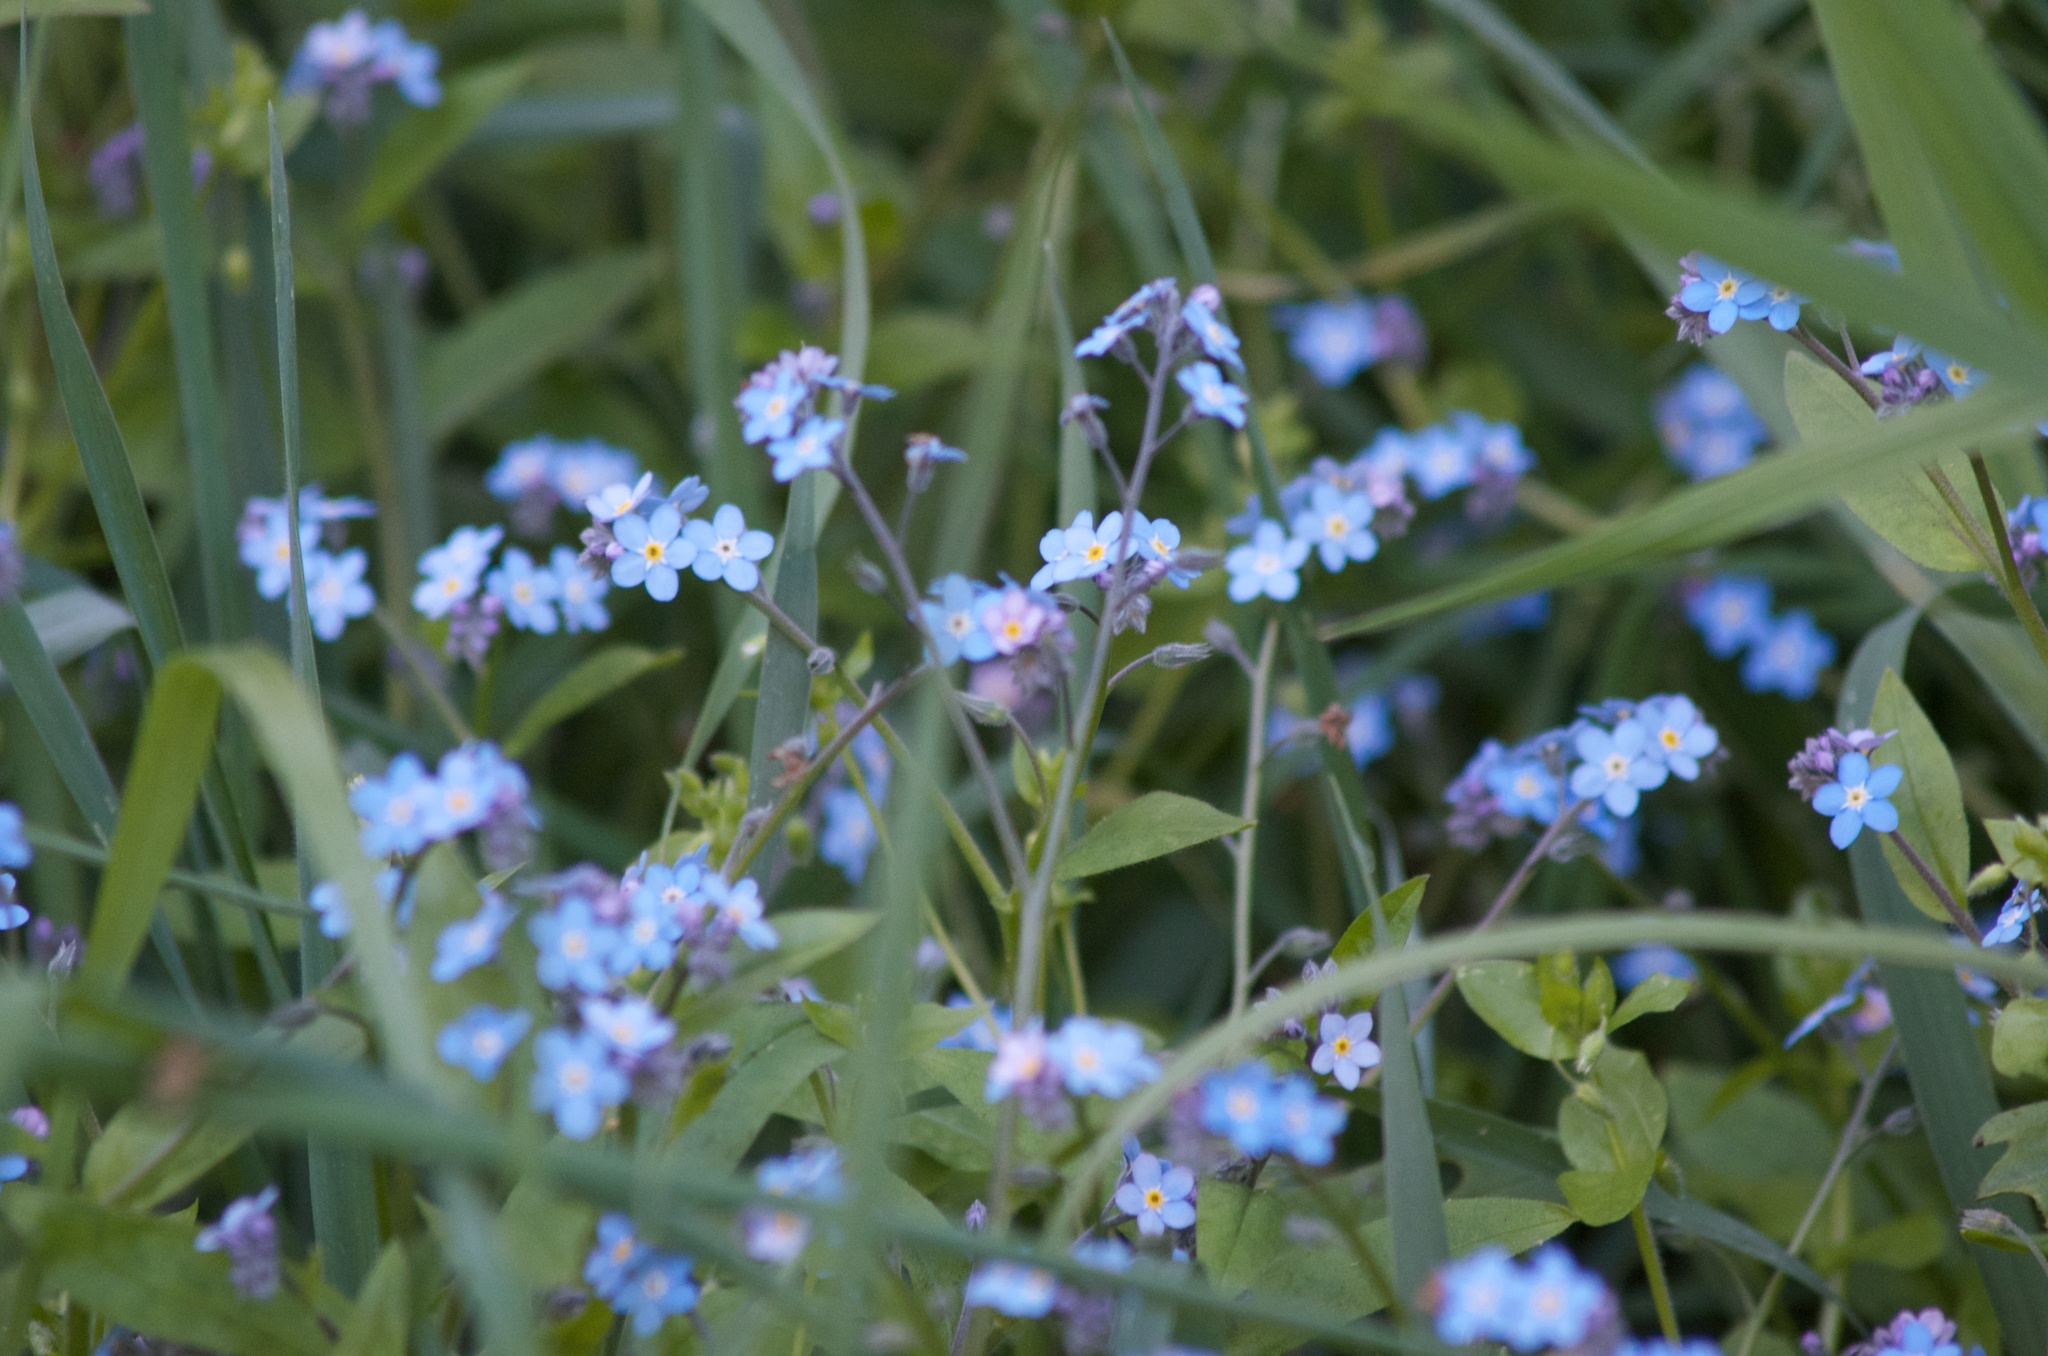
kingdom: Plantae
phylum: Tracheophyta
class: Magnoliopsida
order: Boraginales
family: Boraginaceae
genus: Myosotis
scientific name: Myosotis arvensis
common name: Field forget-me-not
